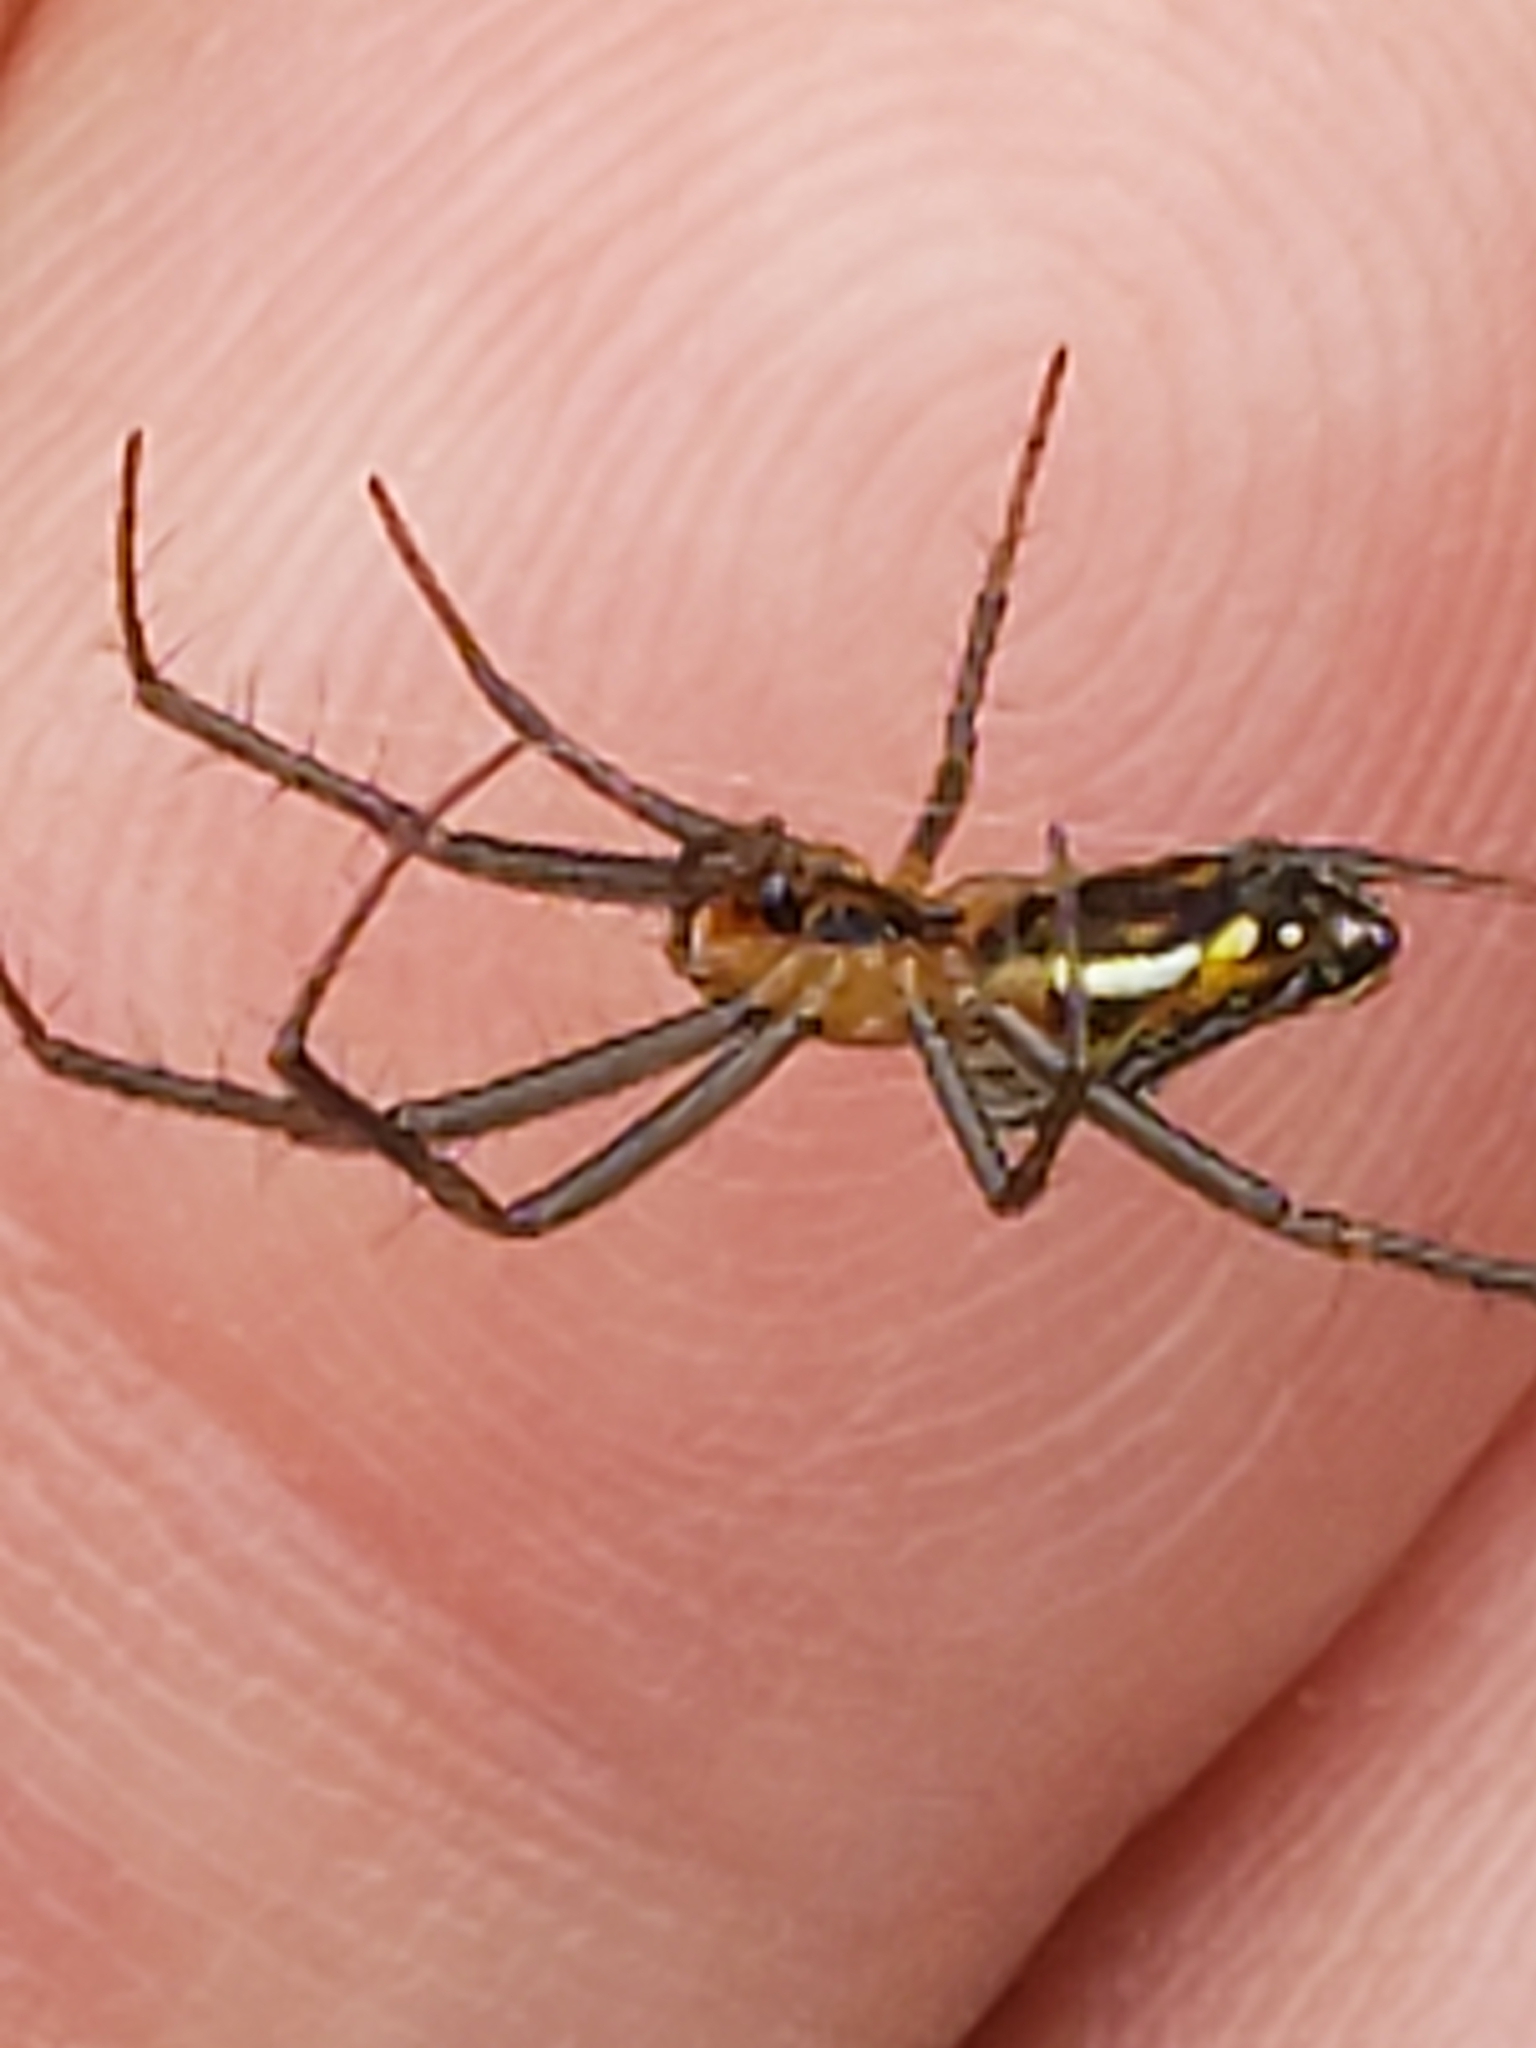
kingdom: Animalia
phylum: Arthropoda
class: Arachnida
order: Araneae
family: Araneidae
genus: Mecynogea
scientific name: Mecynogea lemniscata
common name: Orb weavers
